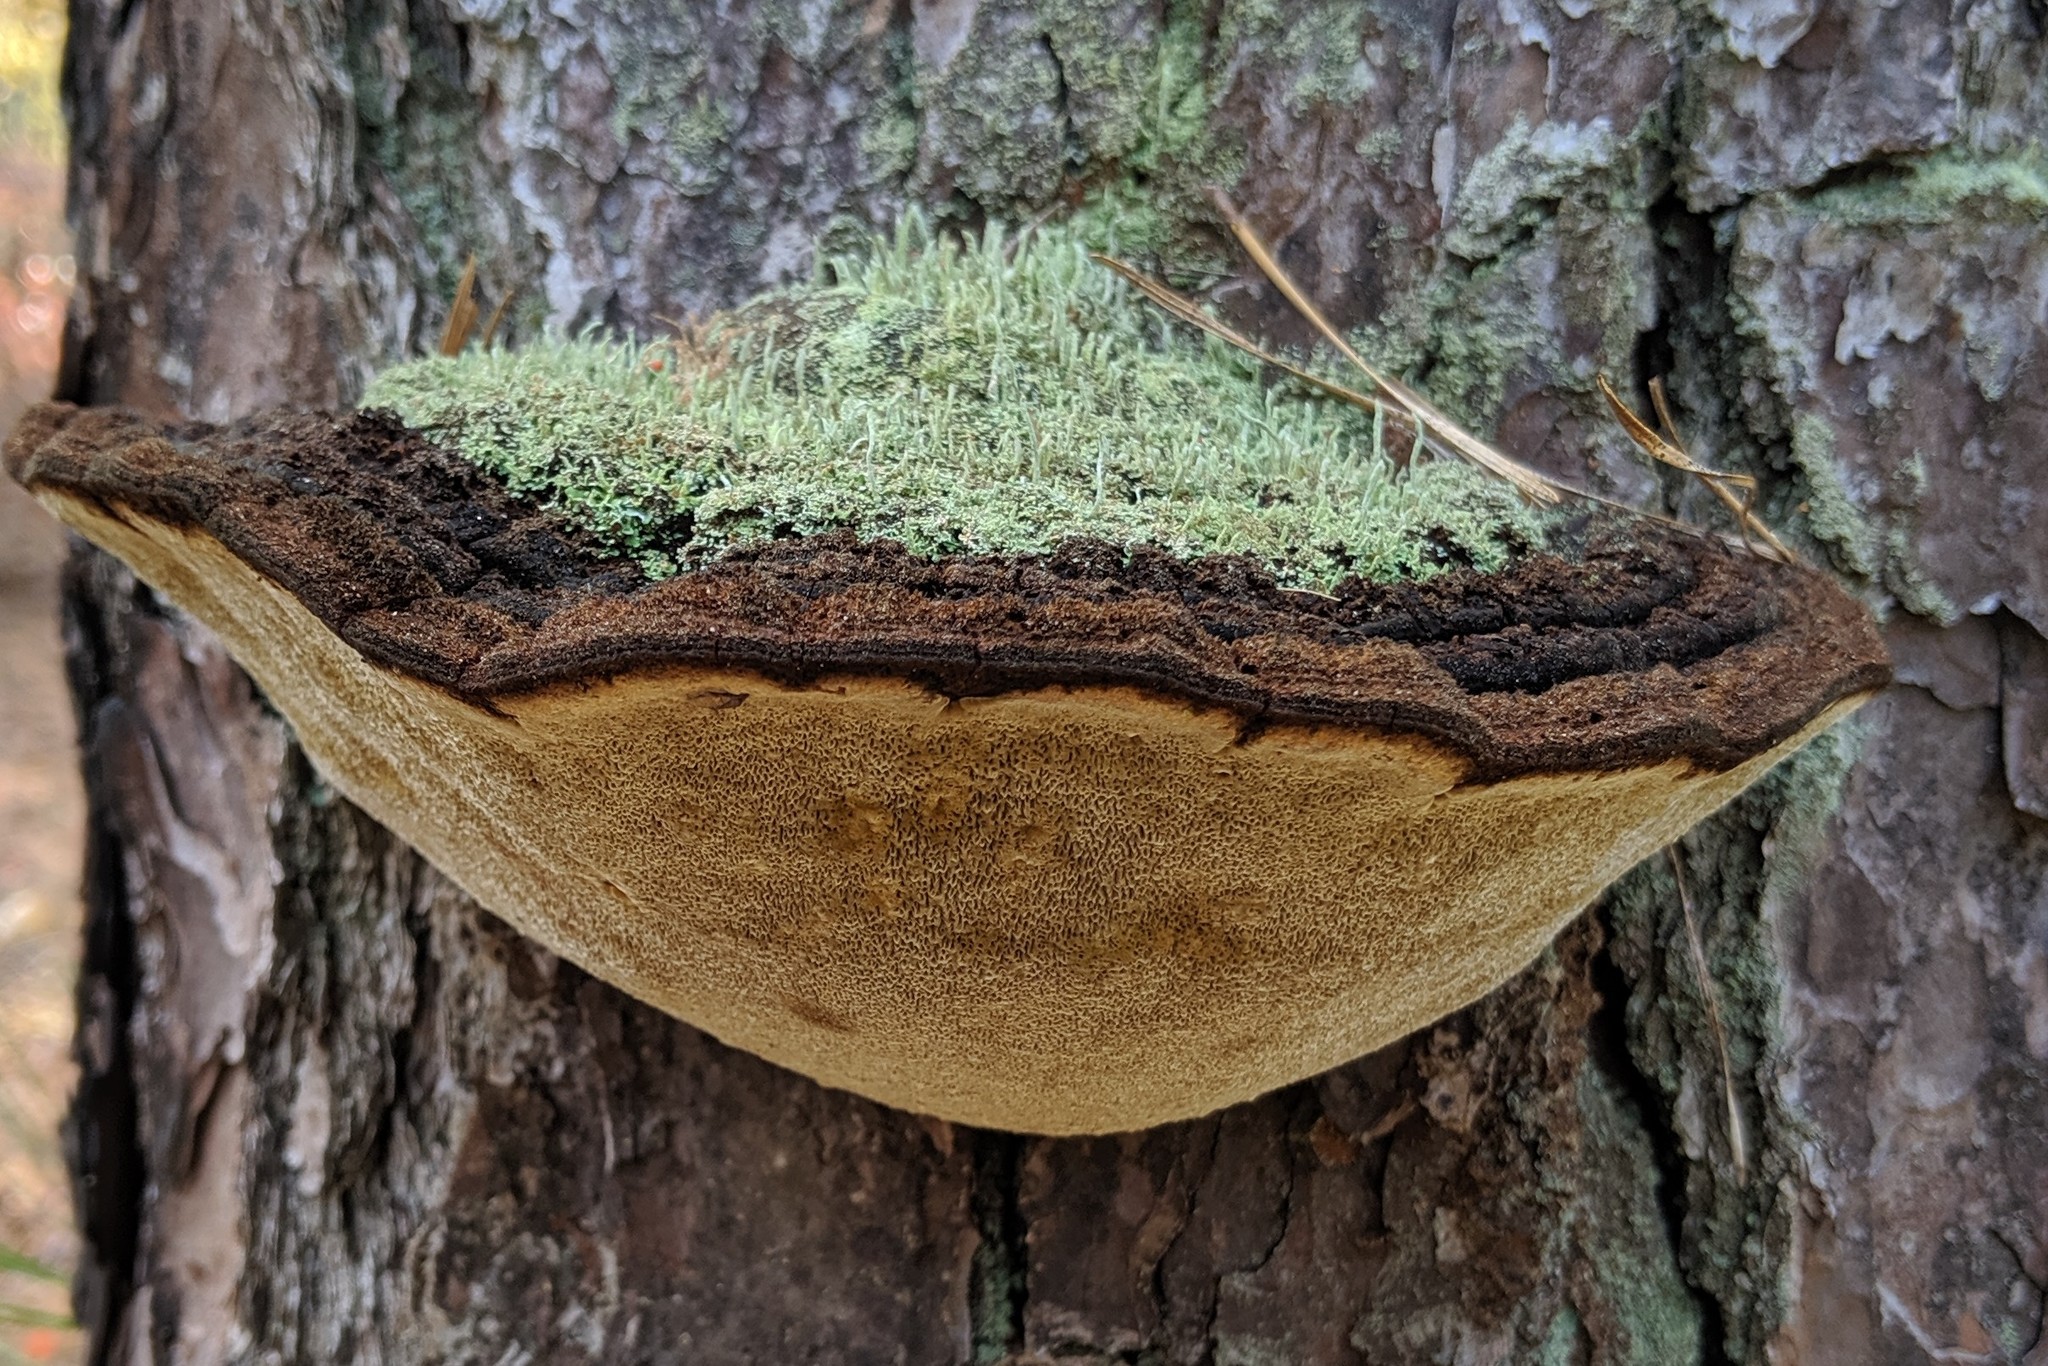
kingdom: Fungi
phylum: Basidiomycota
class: Agaricomycetes
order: Hymenochaetales
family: Hymenochaetaceae
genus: Porodaedalea
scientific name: Porodaedalea pini
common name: Pine bracket
